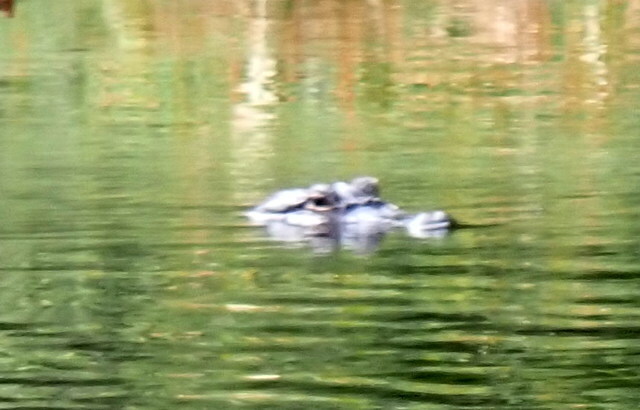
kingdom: Animalia
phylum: Chordata
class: Crocodylia
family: Alligatoridae
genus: Alligator
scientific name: Alligator mississippiensis
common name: American alligator
